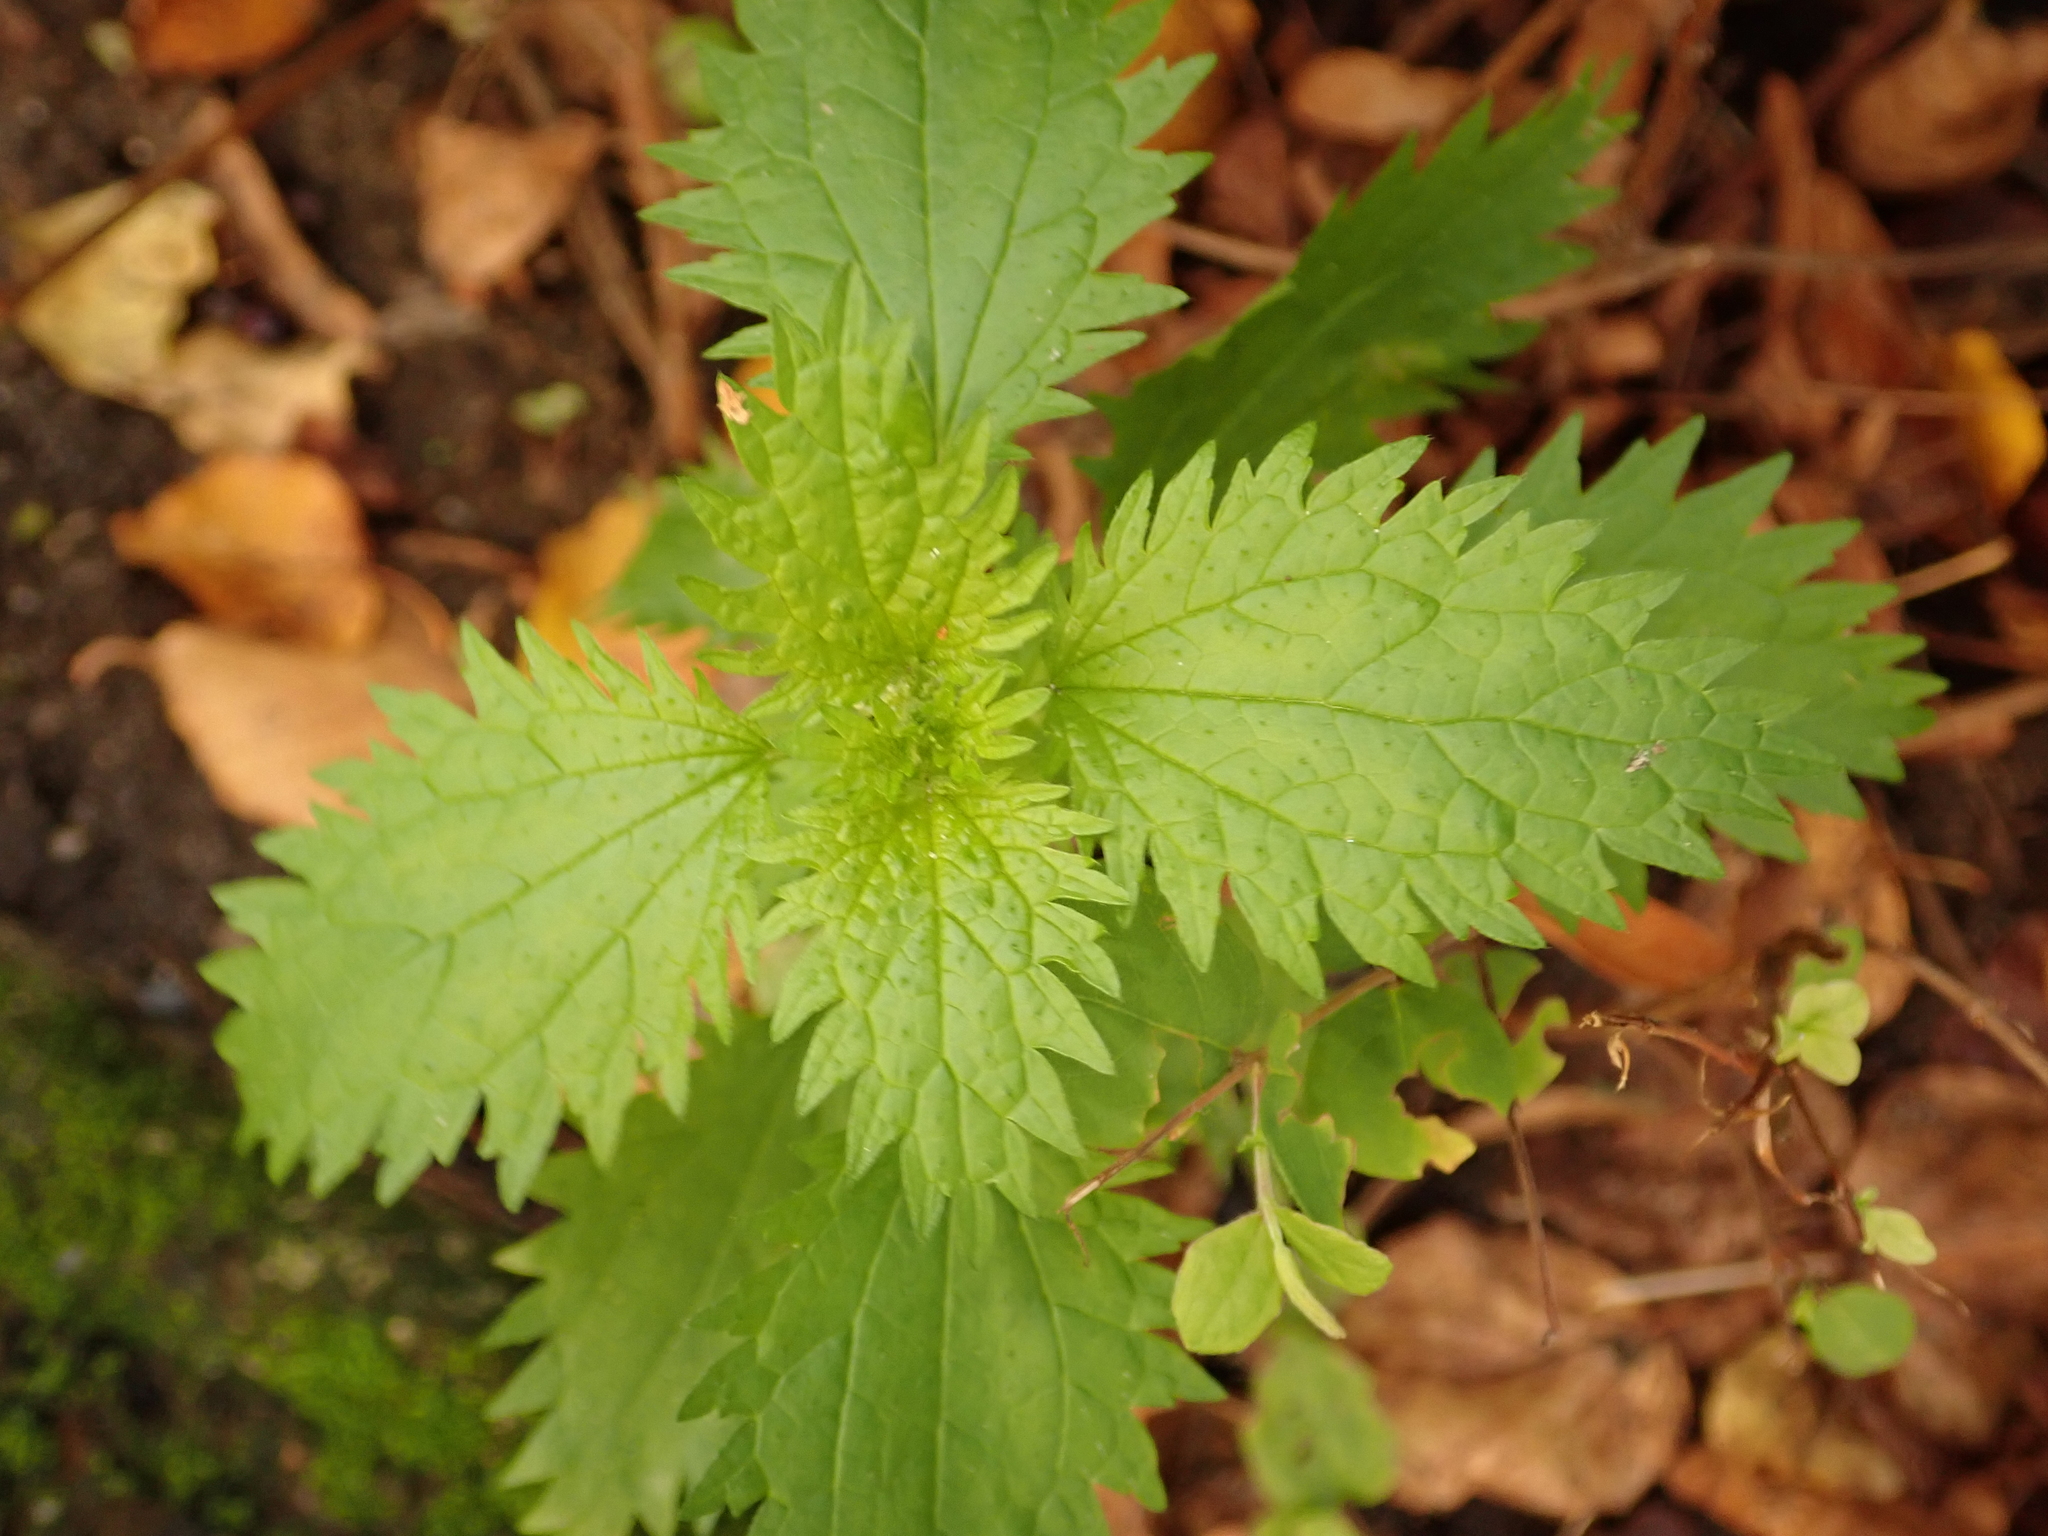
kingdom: Plantae
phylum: Tracheophyta
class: Magnoliopsida
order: Rosales
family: Urticaceae
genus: Urtica
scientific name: Urtica urens
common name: Dwarf nettle
